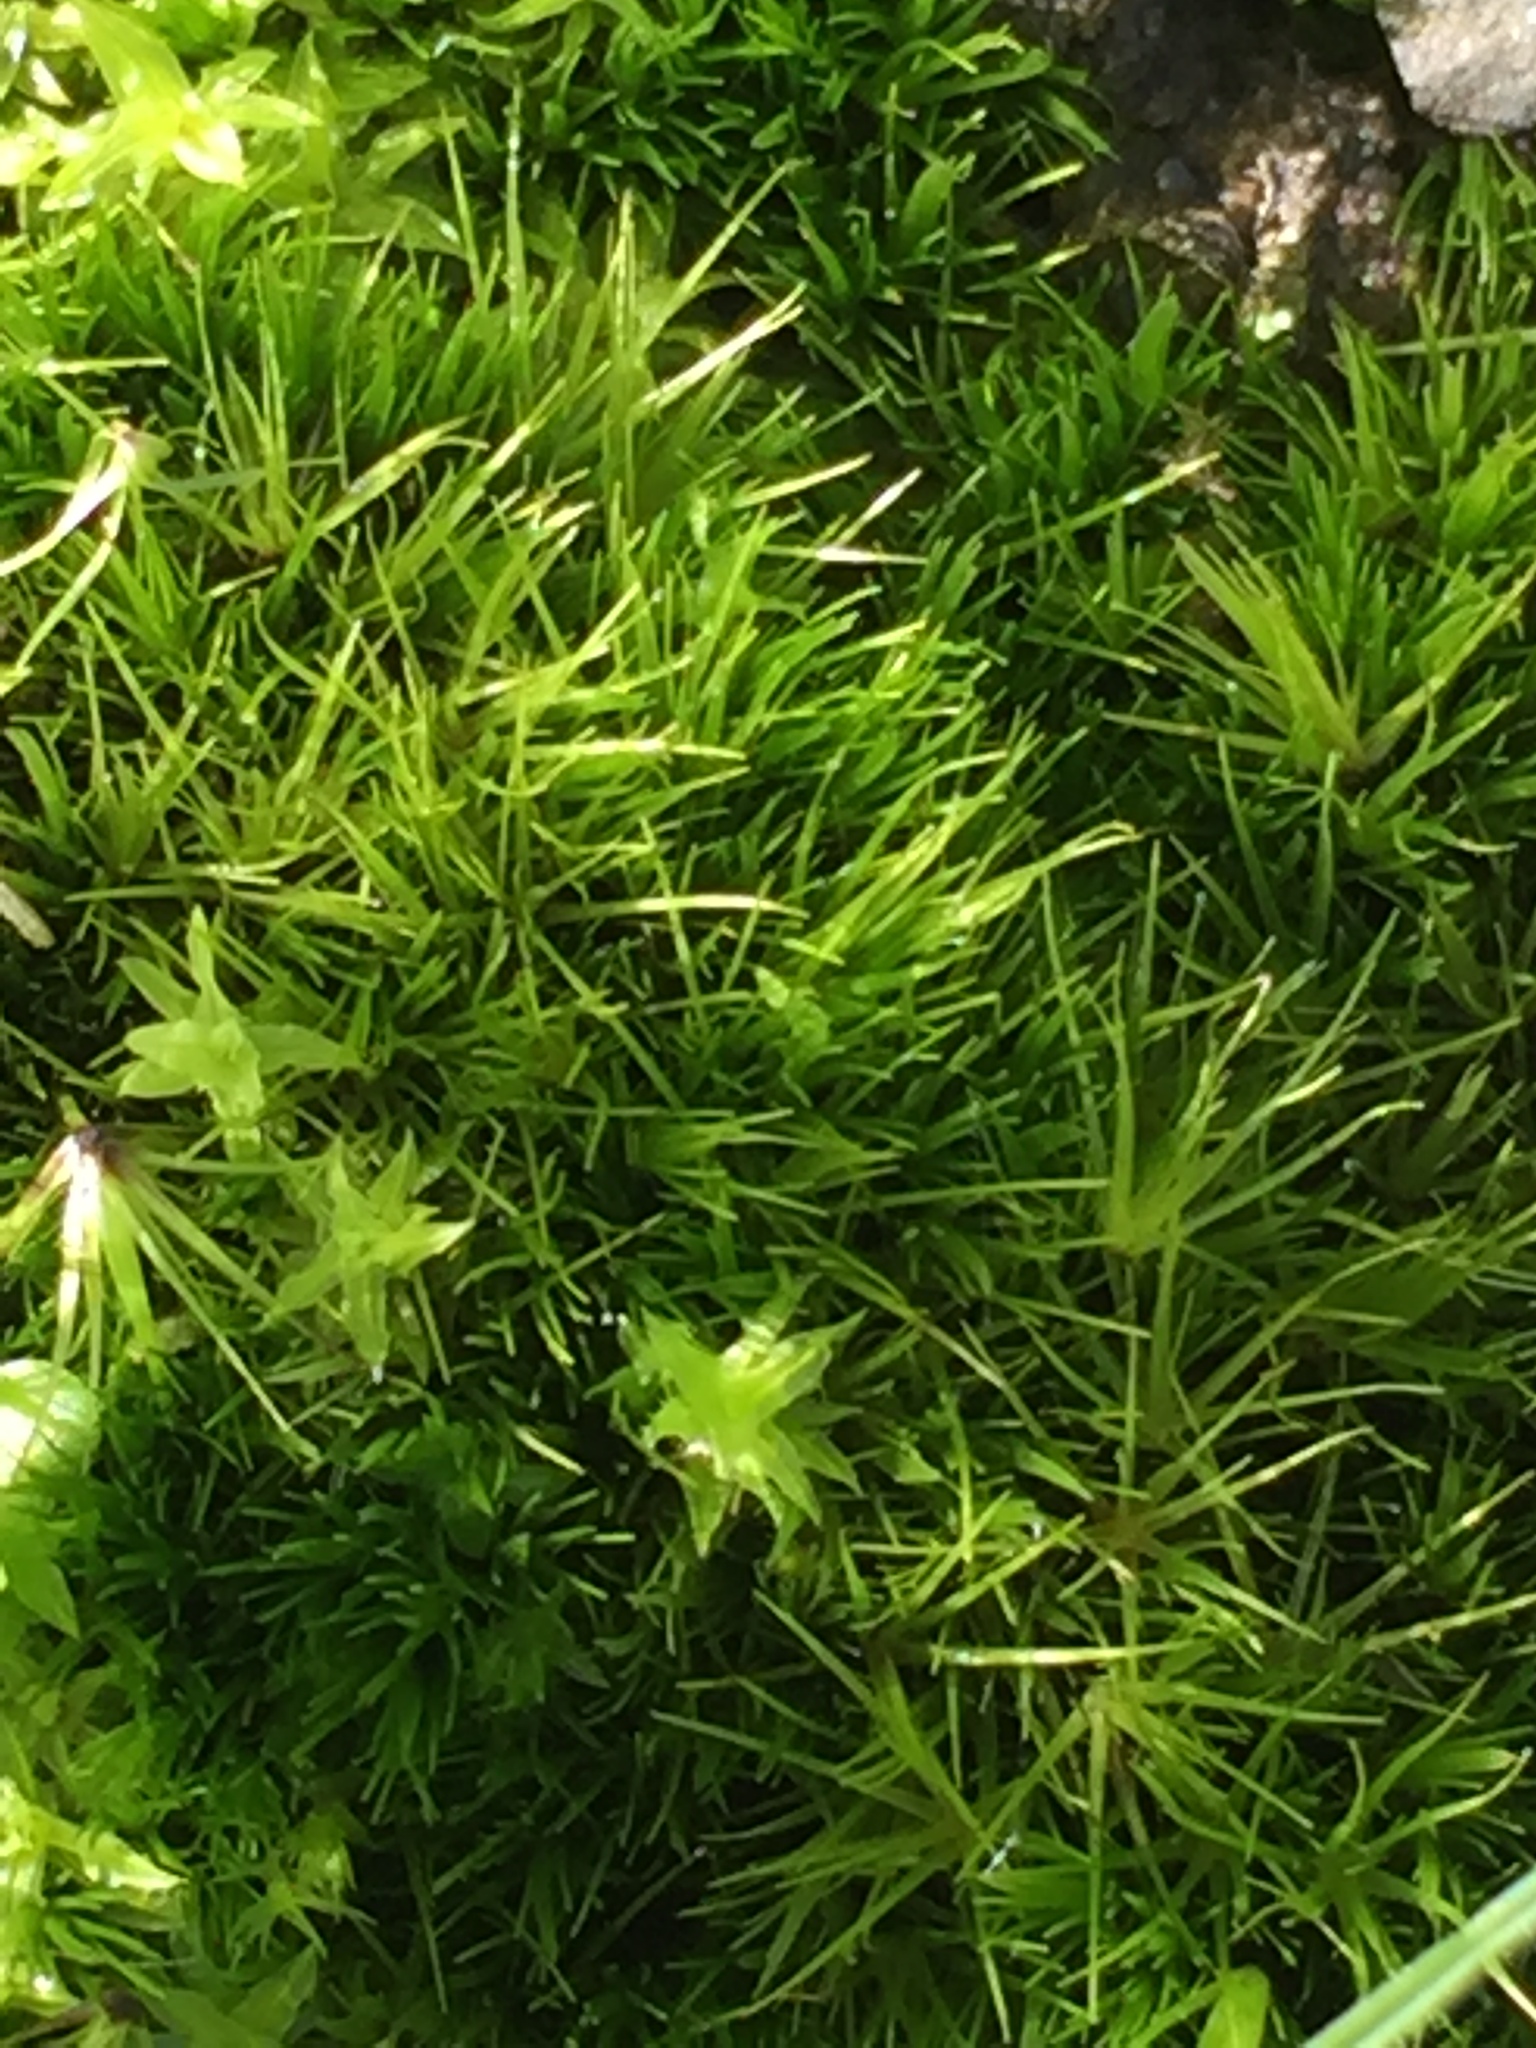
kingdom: Plantae
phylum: Bryophyta
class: Bryopsida
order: Dicranales
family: Leucobryaceae
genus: Campylopus
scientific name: Campylopus clavatus
